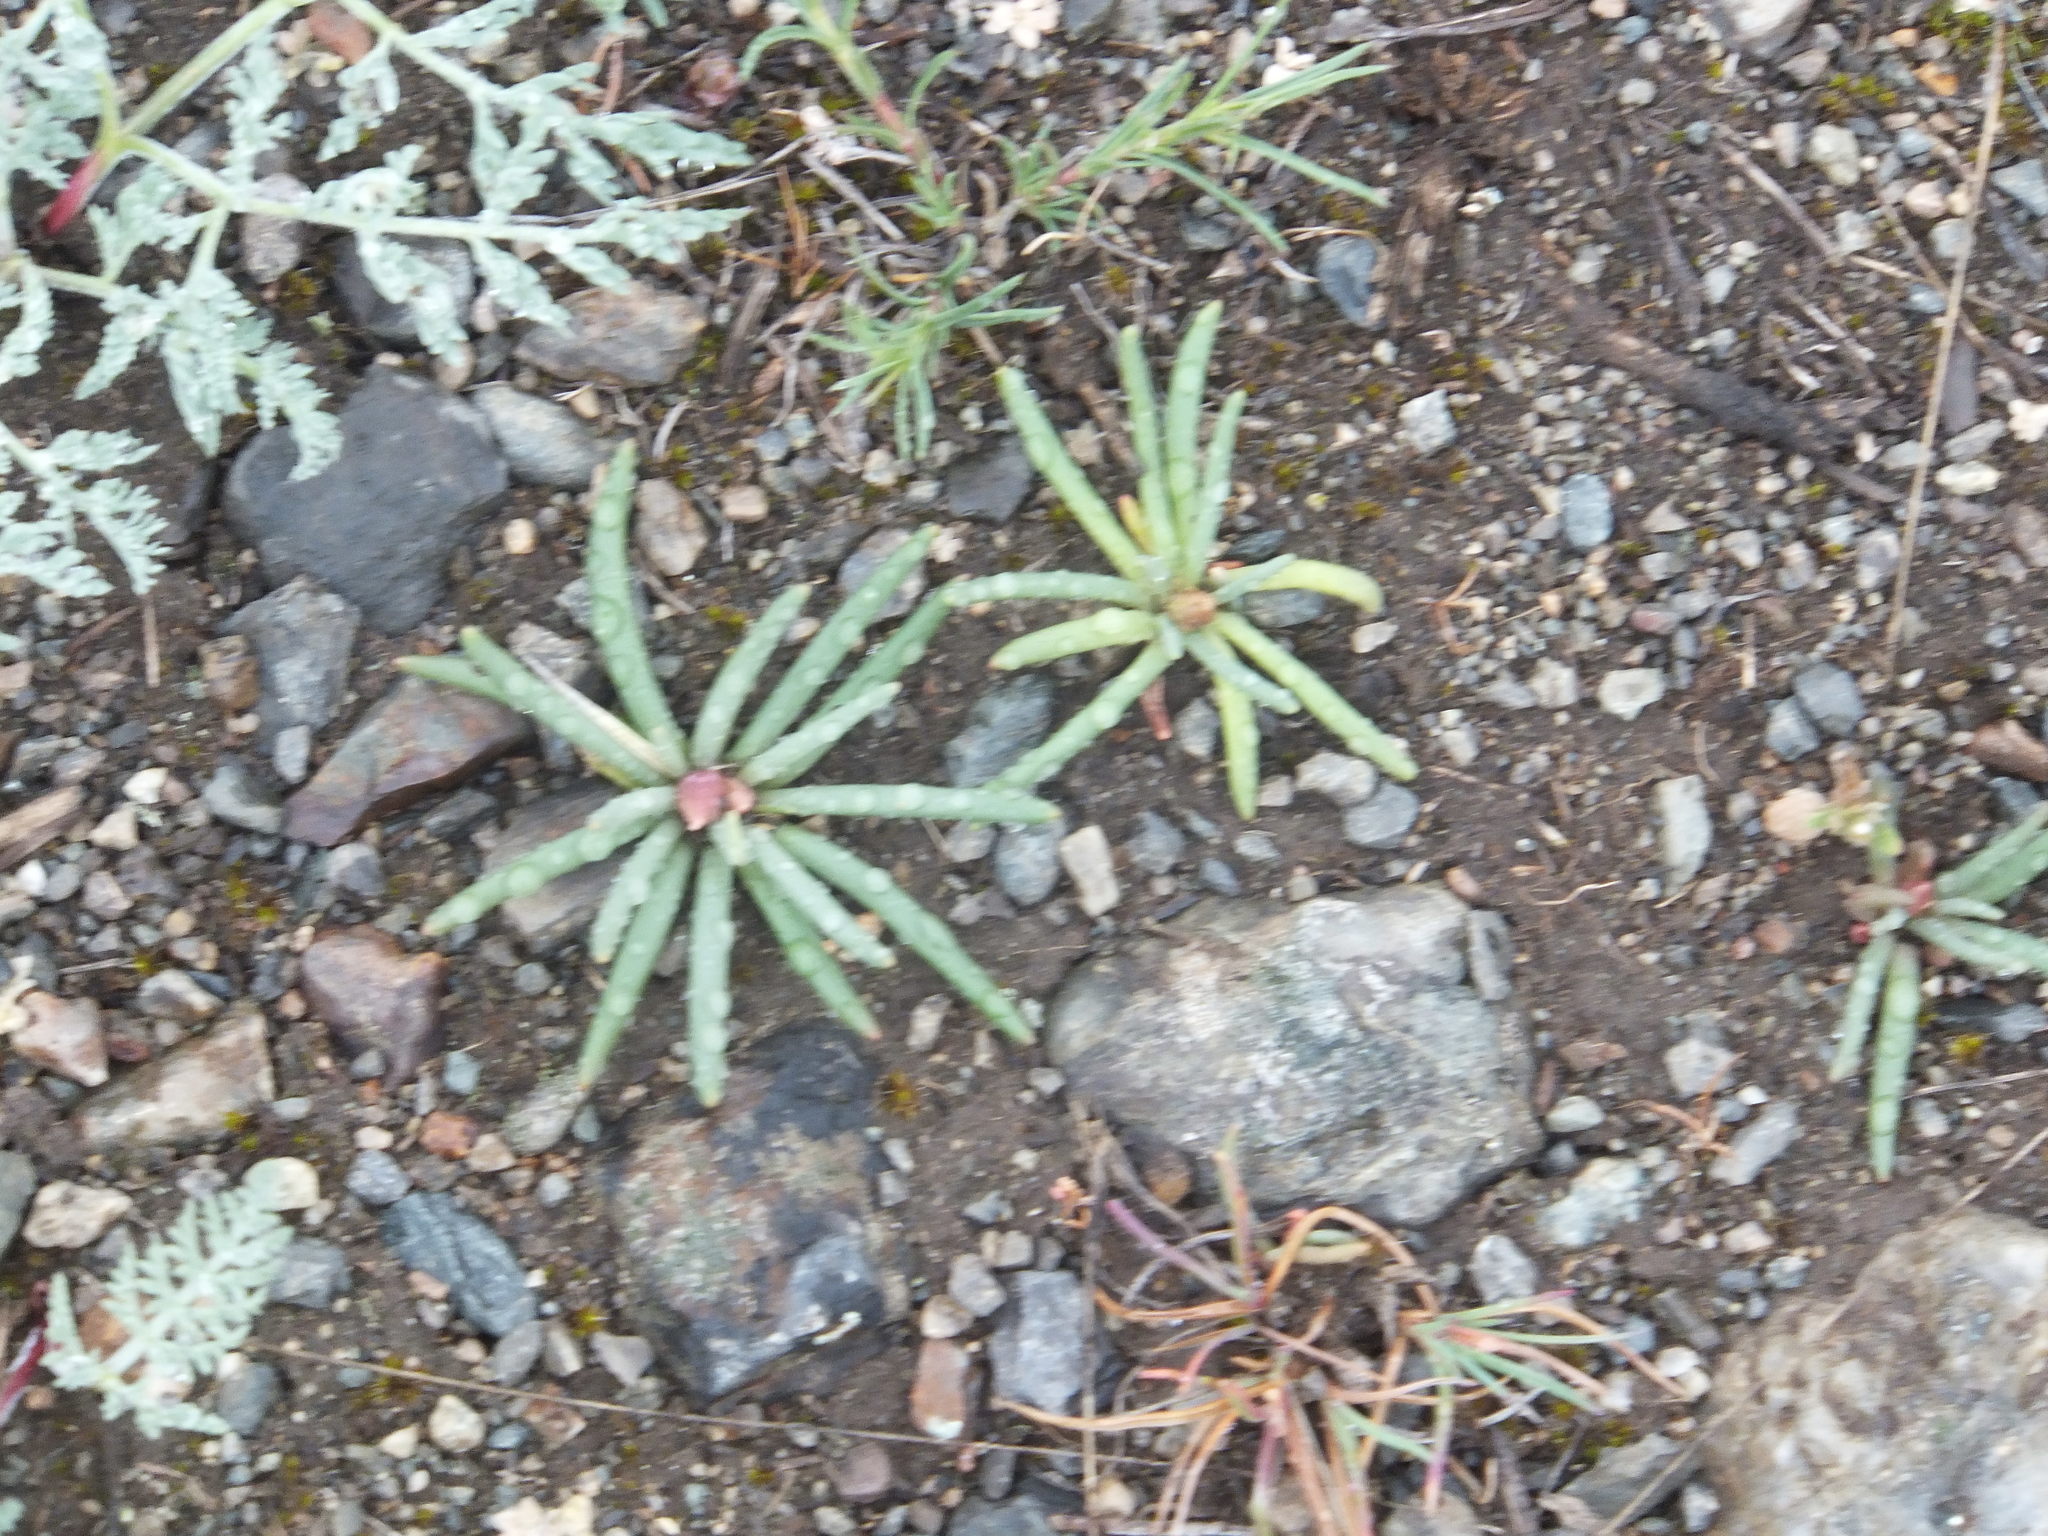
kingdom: Plantae
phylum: Tracheophyta
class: Magnoliopsida
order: Caryophyllales
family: Montiaceae
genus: Lewisia
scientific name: Lewisia rediviva
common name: Bitter-root
